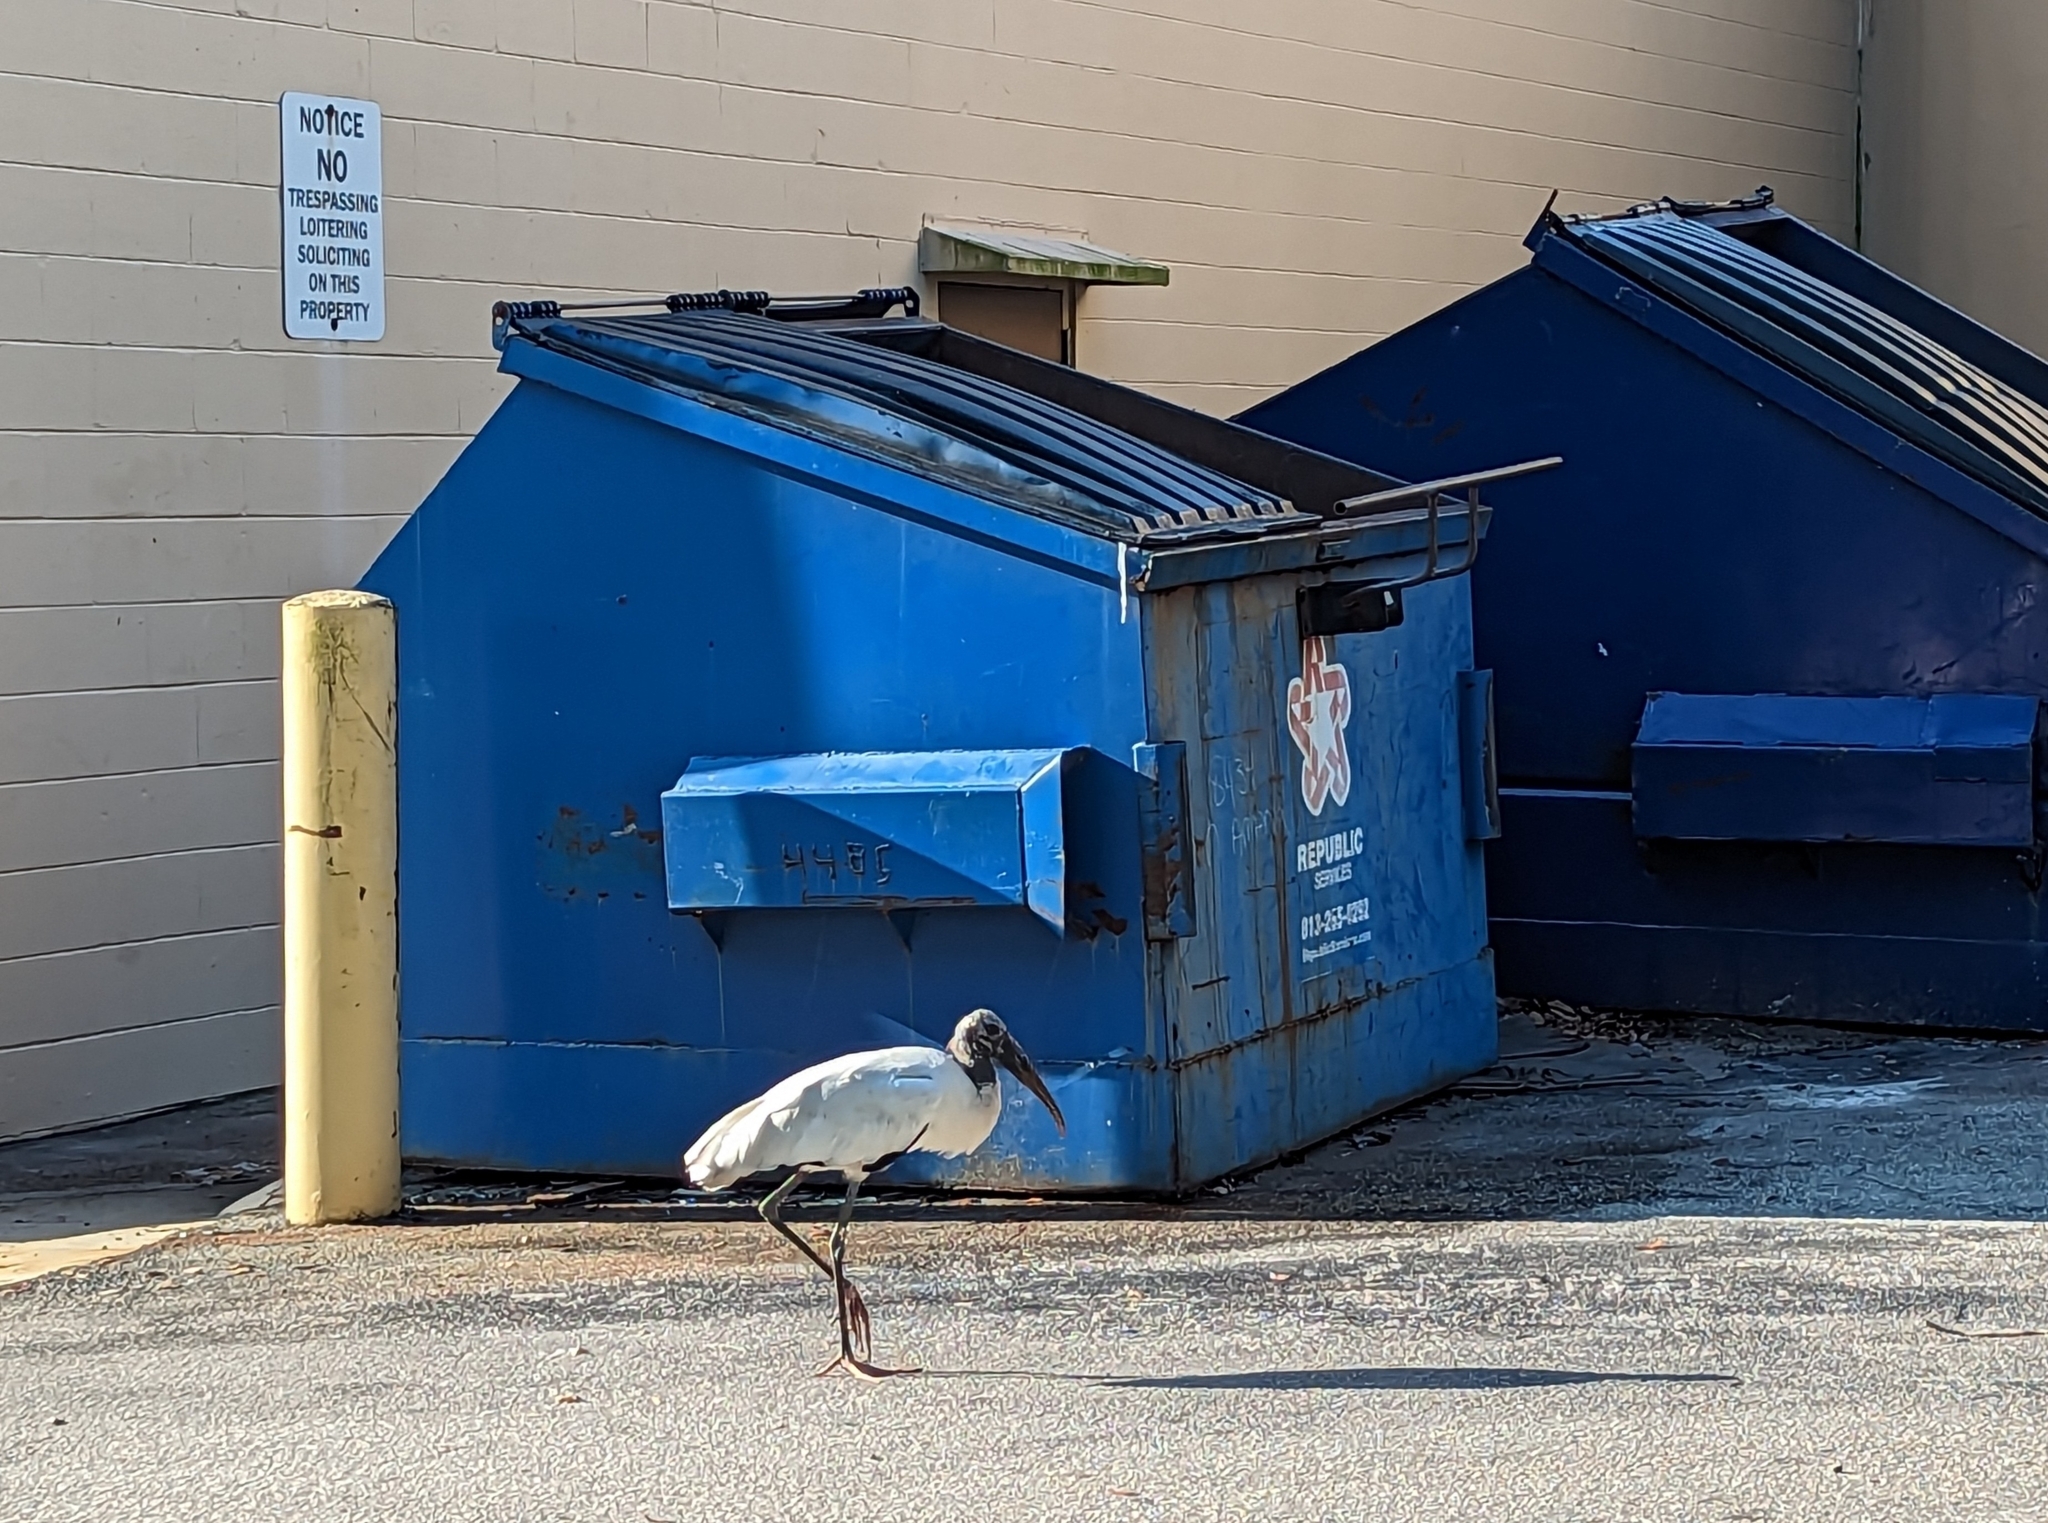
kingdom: Animalia
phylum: Chordata
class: Aves
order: Ciconiiformes
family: Ciconiidae
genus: Mycteria
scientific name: Mycteria americana
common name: Wood stork
